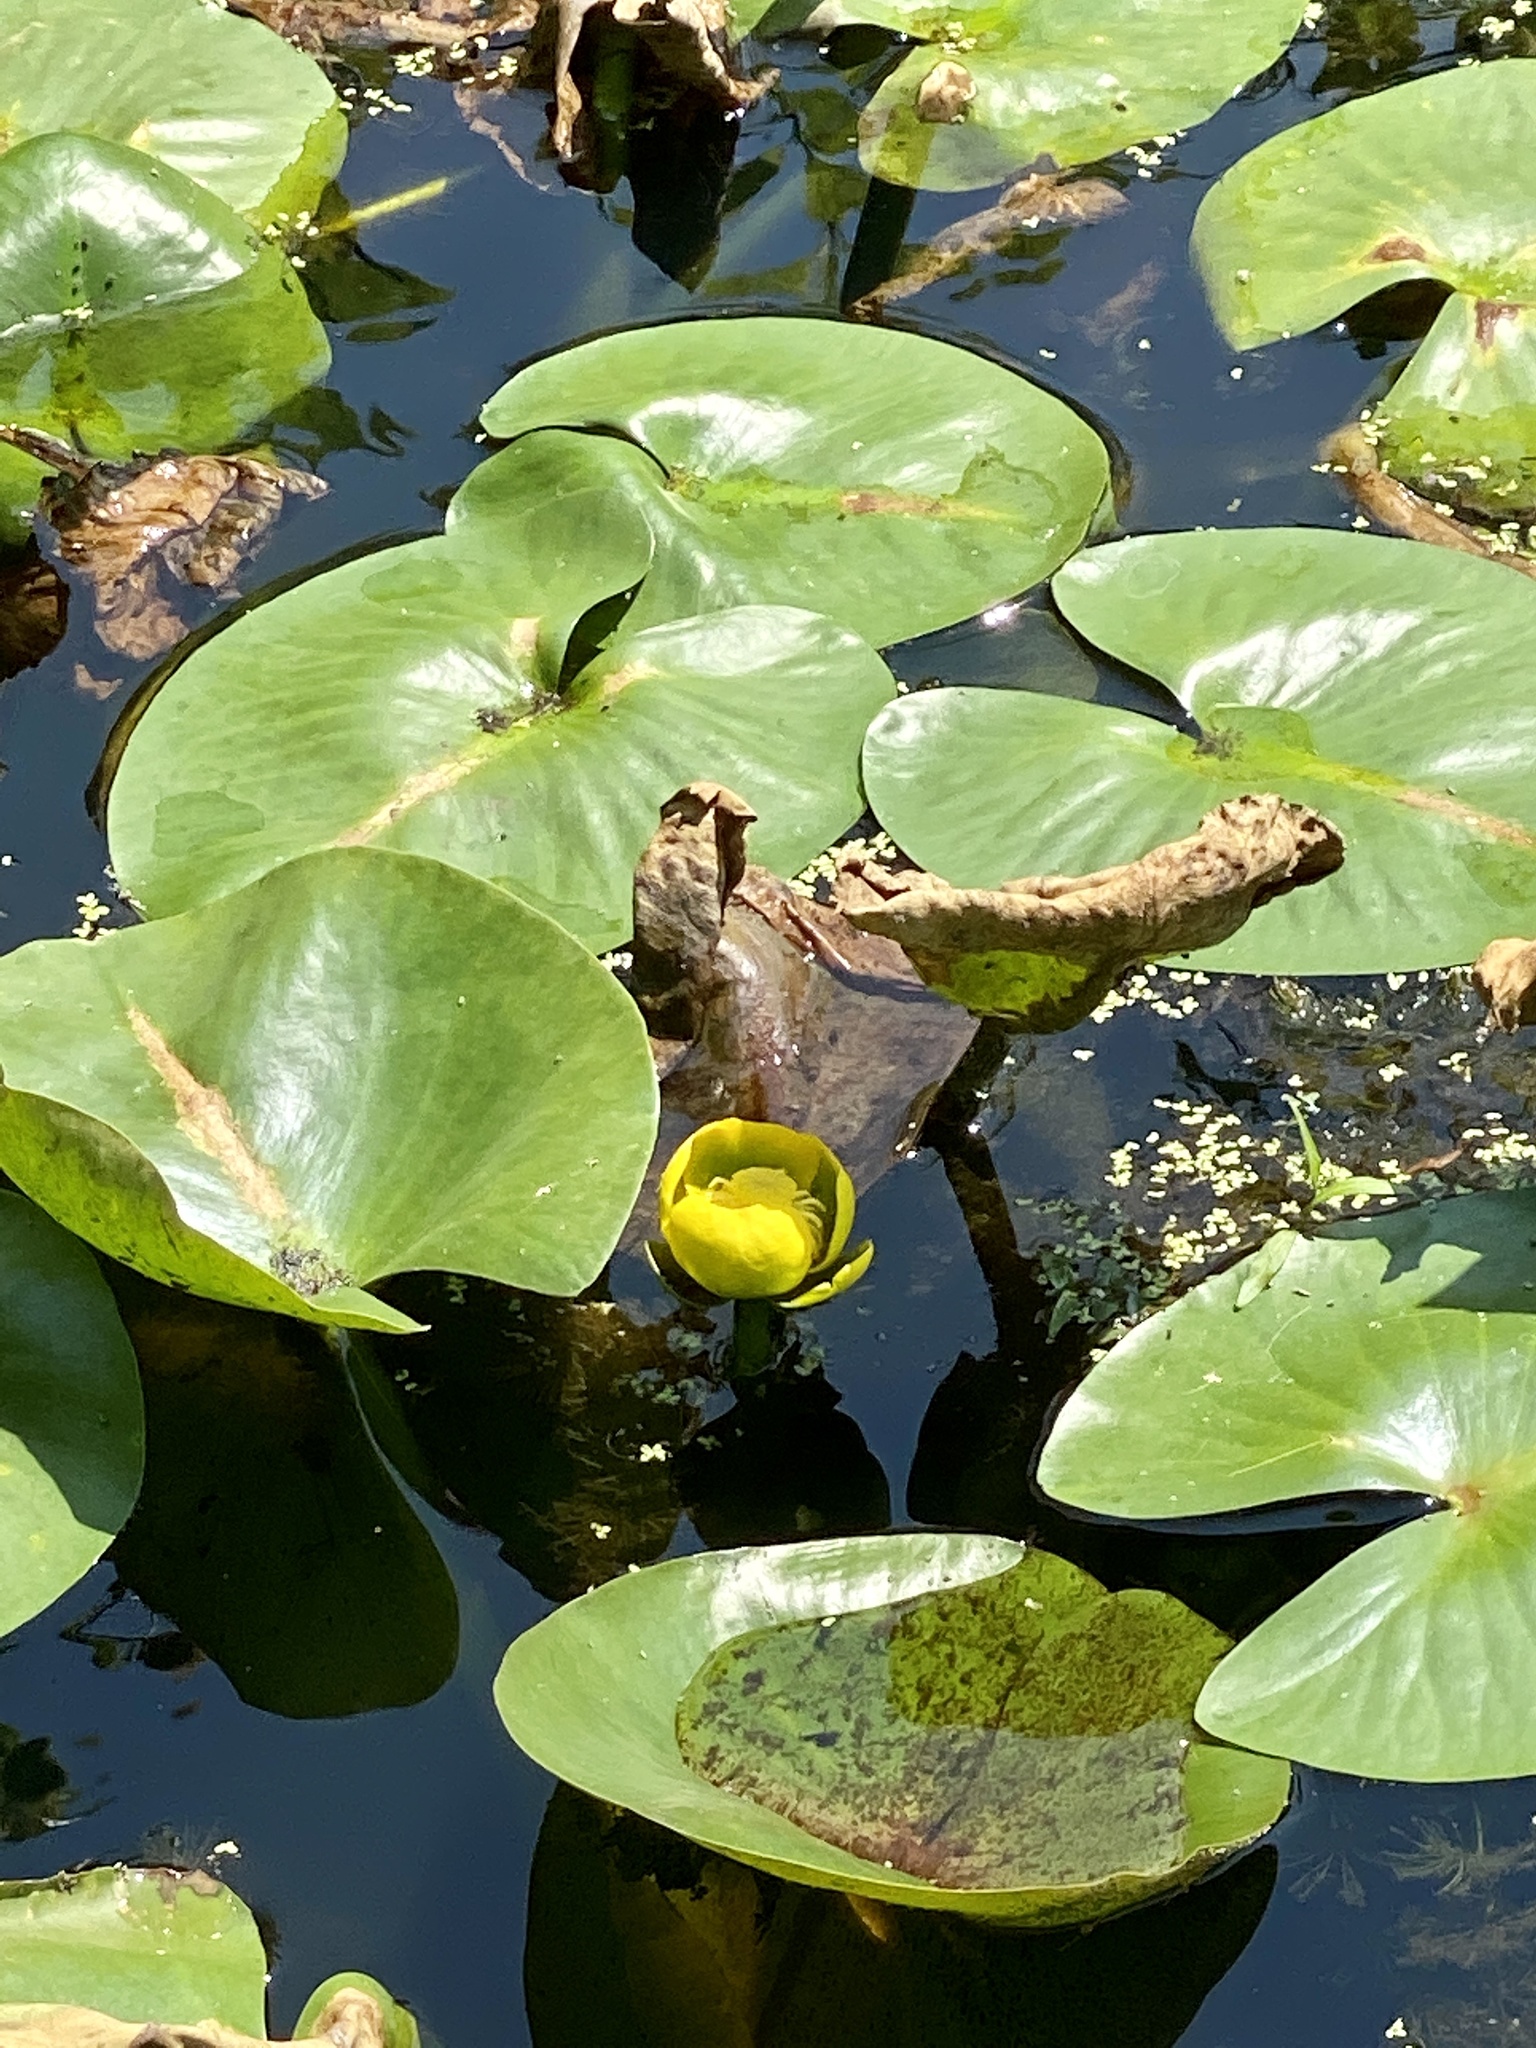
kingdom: Plantae
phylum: Tracheophyta
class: Magnoliopsida
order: Nymphaeales
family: Nymphaeaceae
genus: Nuphar
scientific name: Nuphar advena
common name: Spatter-dock
